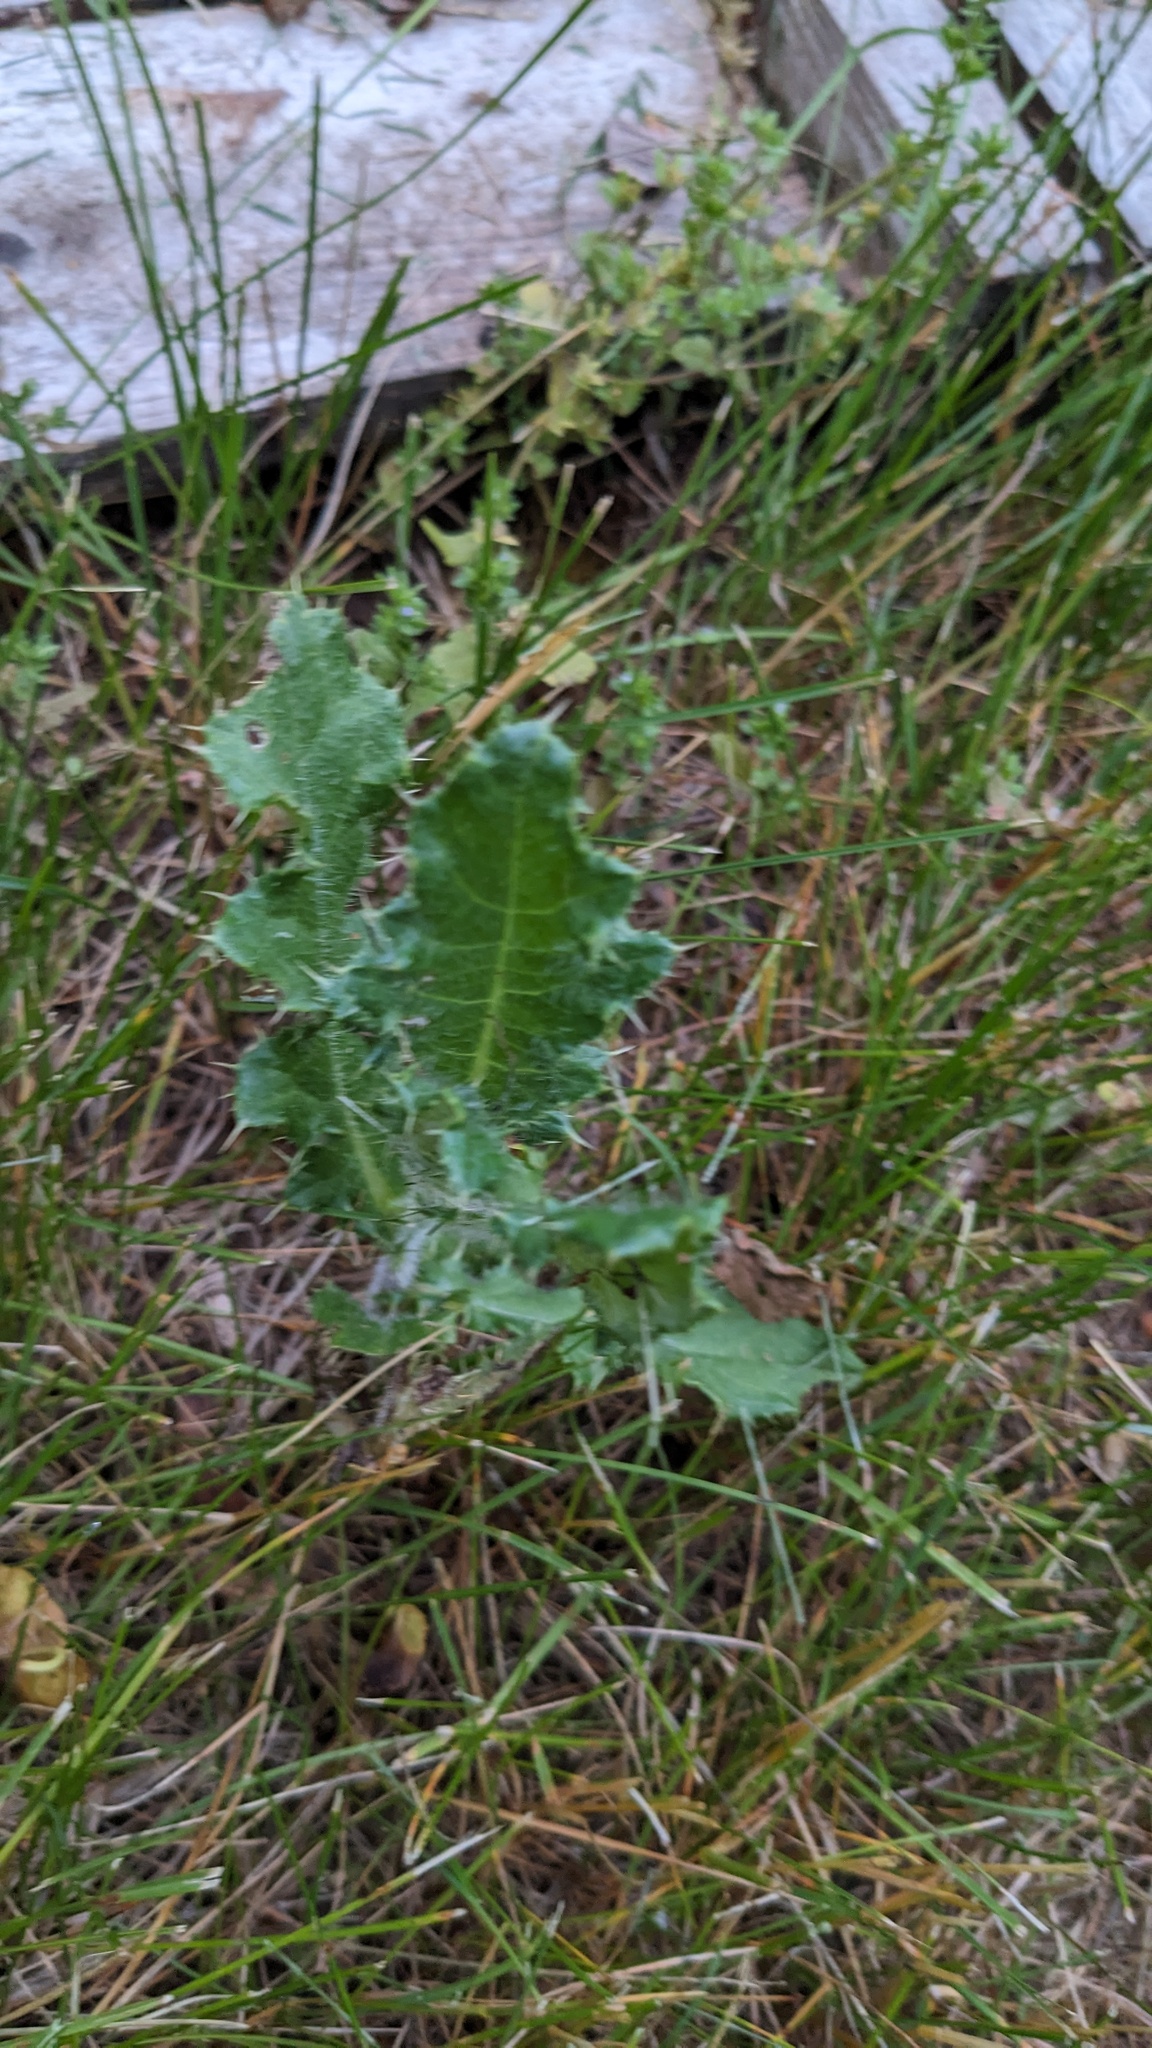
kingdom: Plantae
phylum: Tracheophyta
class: Magnoliopsida
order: Asterales
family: Asteraceae
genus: Cirsium
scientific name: Cirsium arvense
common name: Creeping thistle
